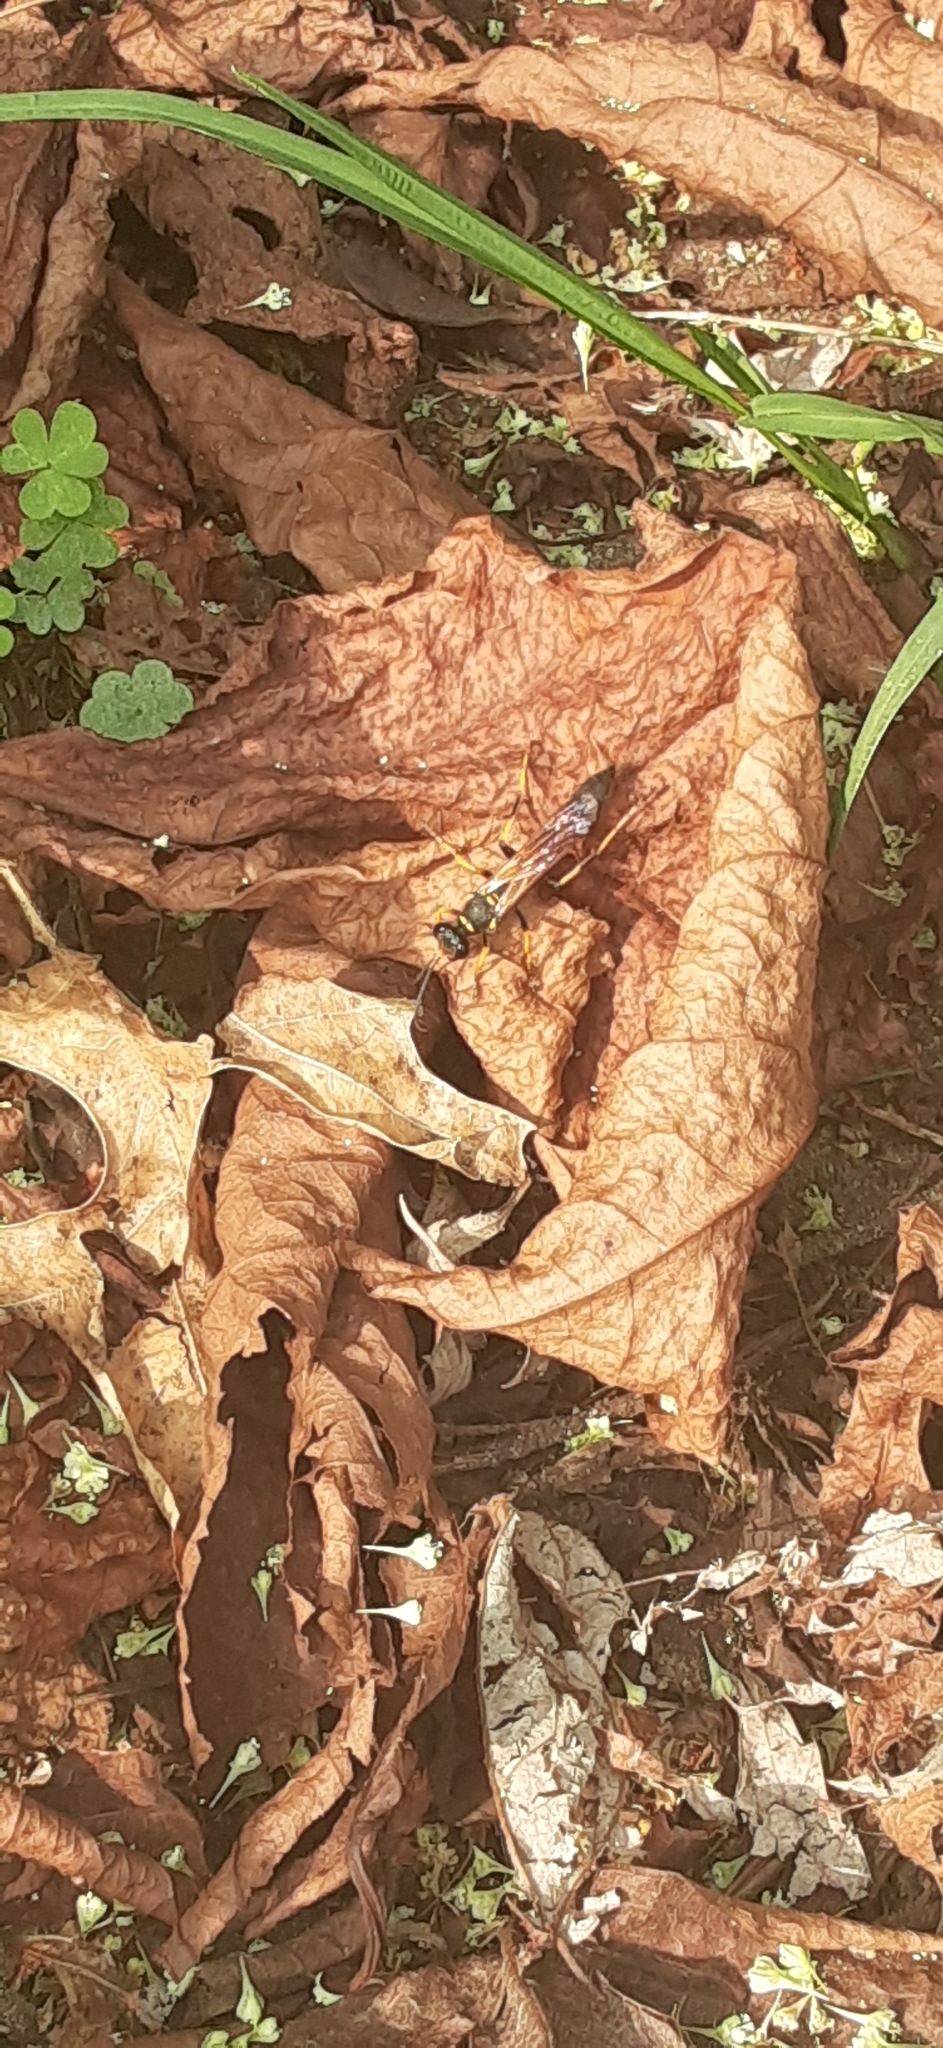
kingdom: Animalia
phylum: Arthropoda
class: Insecta
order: Hymenoptera
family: Sphecidae
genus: Sceliphron
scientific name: Sceliphron caementarium
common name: Mud dauber
